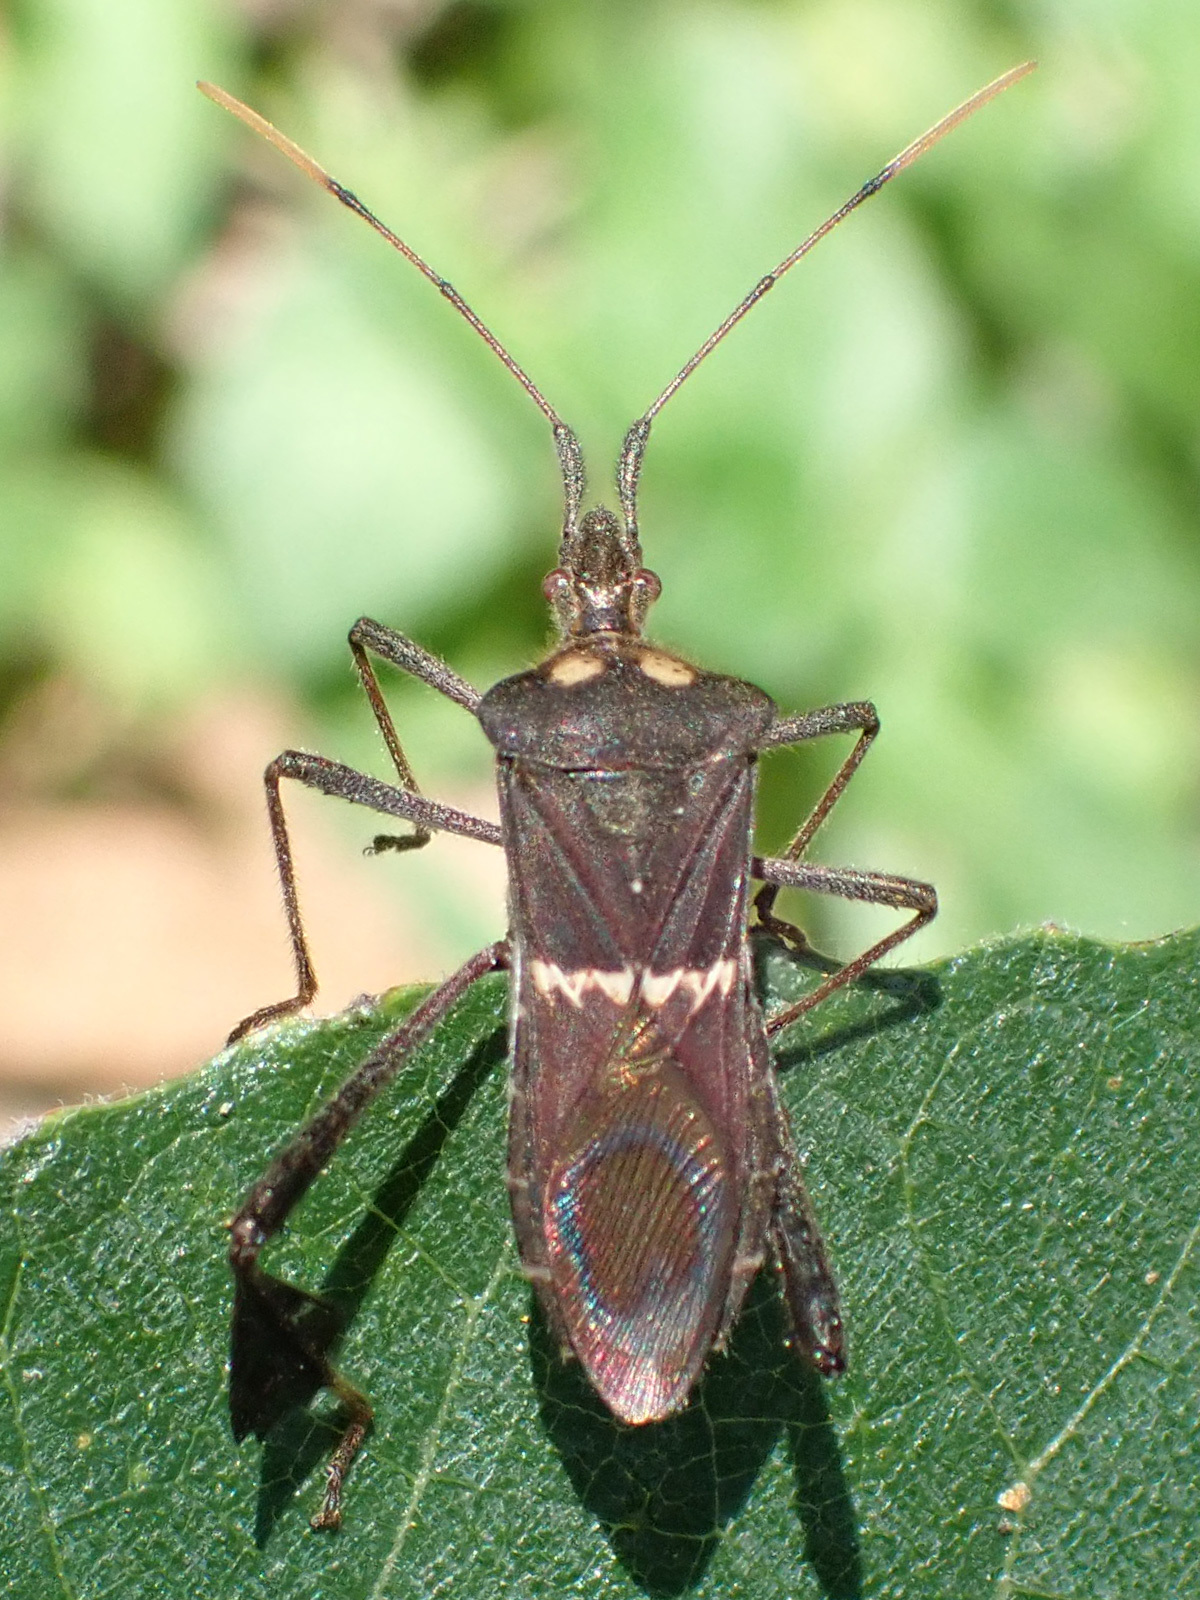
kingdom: Animalia
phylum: Arthropoda
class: Insecta
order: Hemiptera
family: Coreidae
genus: Leptoglossus
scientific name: Leptoglossus zonatus
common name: Large-legged bug
